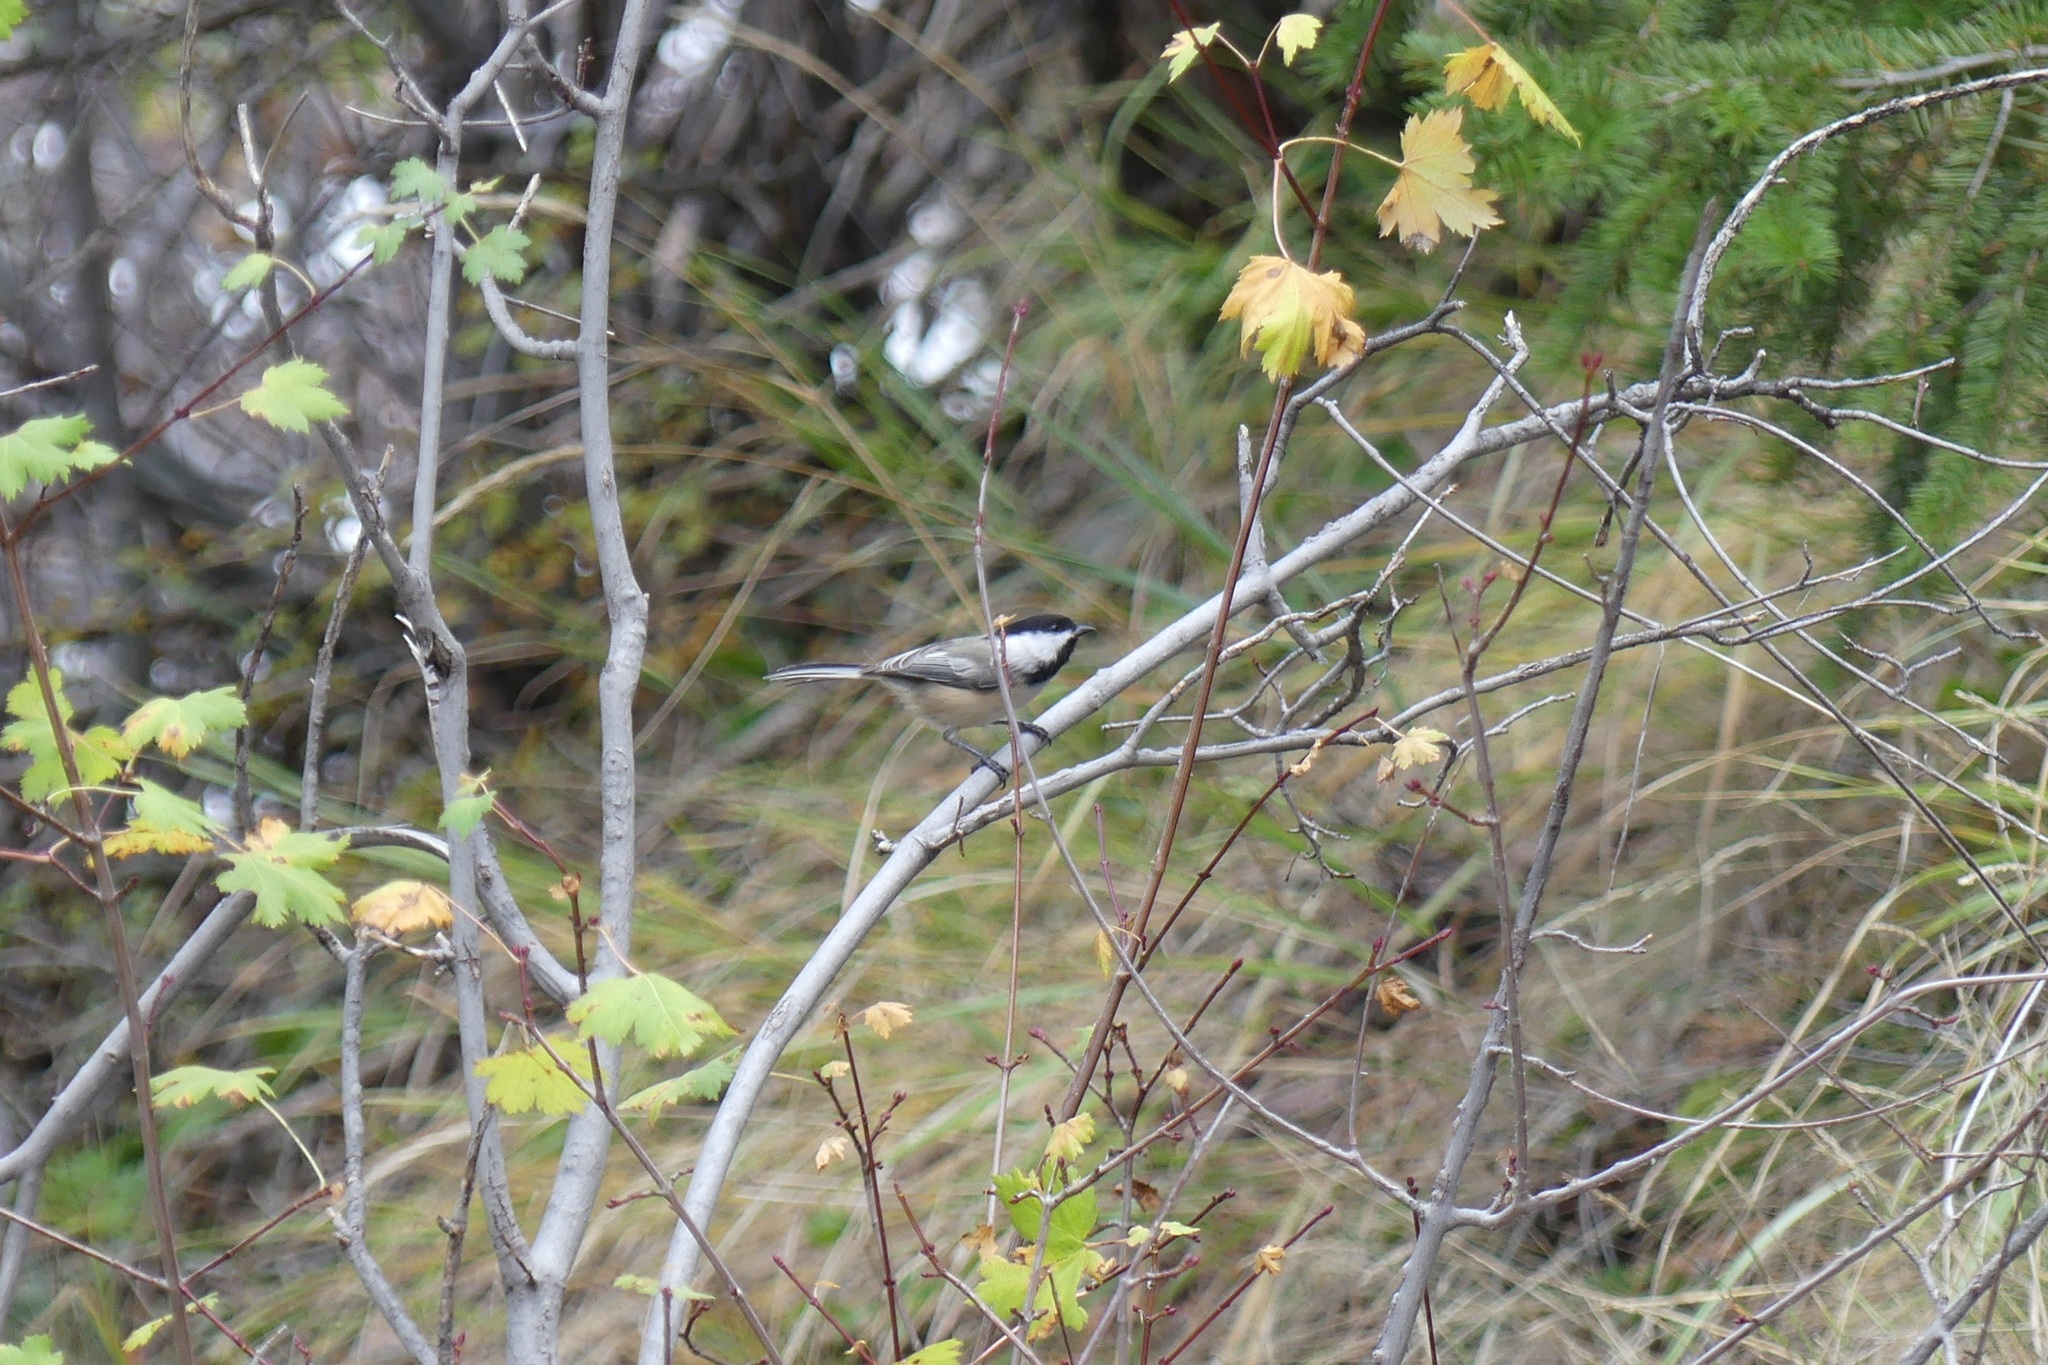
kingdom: Animalia
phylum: Chordata
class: Aves
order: Passeriformes
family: Paridae
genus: Poecile
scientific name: Poecile atricapillus
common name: Black-capped chickadee
